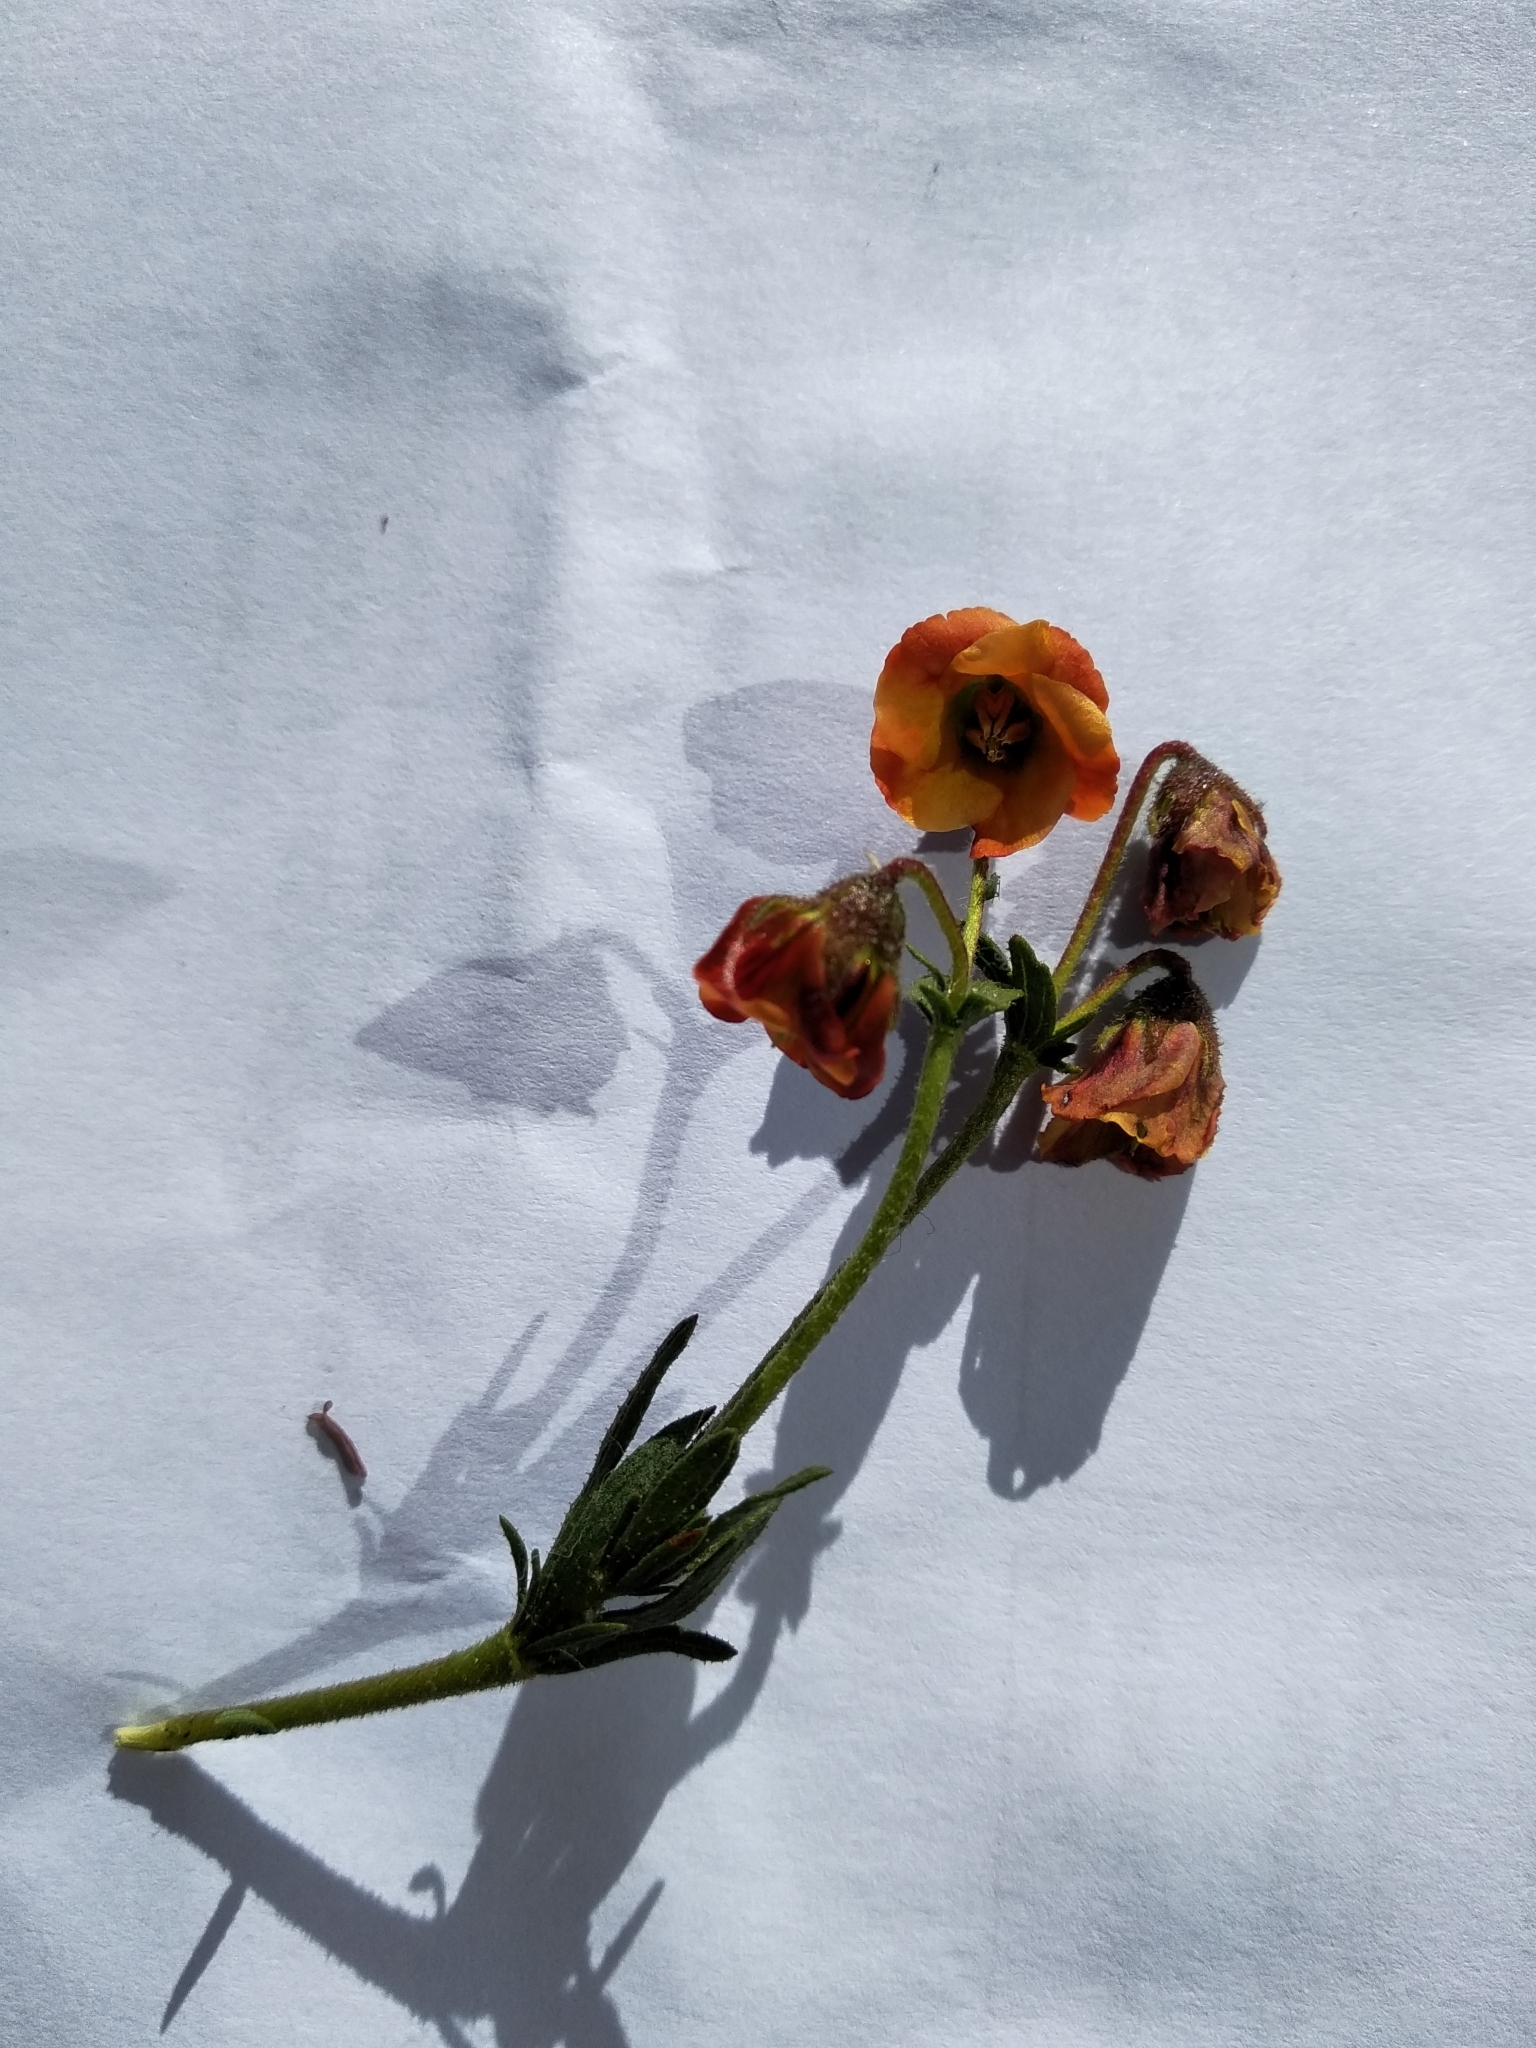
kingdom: Plantae
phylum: Tracheophyta
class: Magnoliopsida
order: Malvales
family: Malvaceae
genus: Hermannia
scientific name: Hermannia
